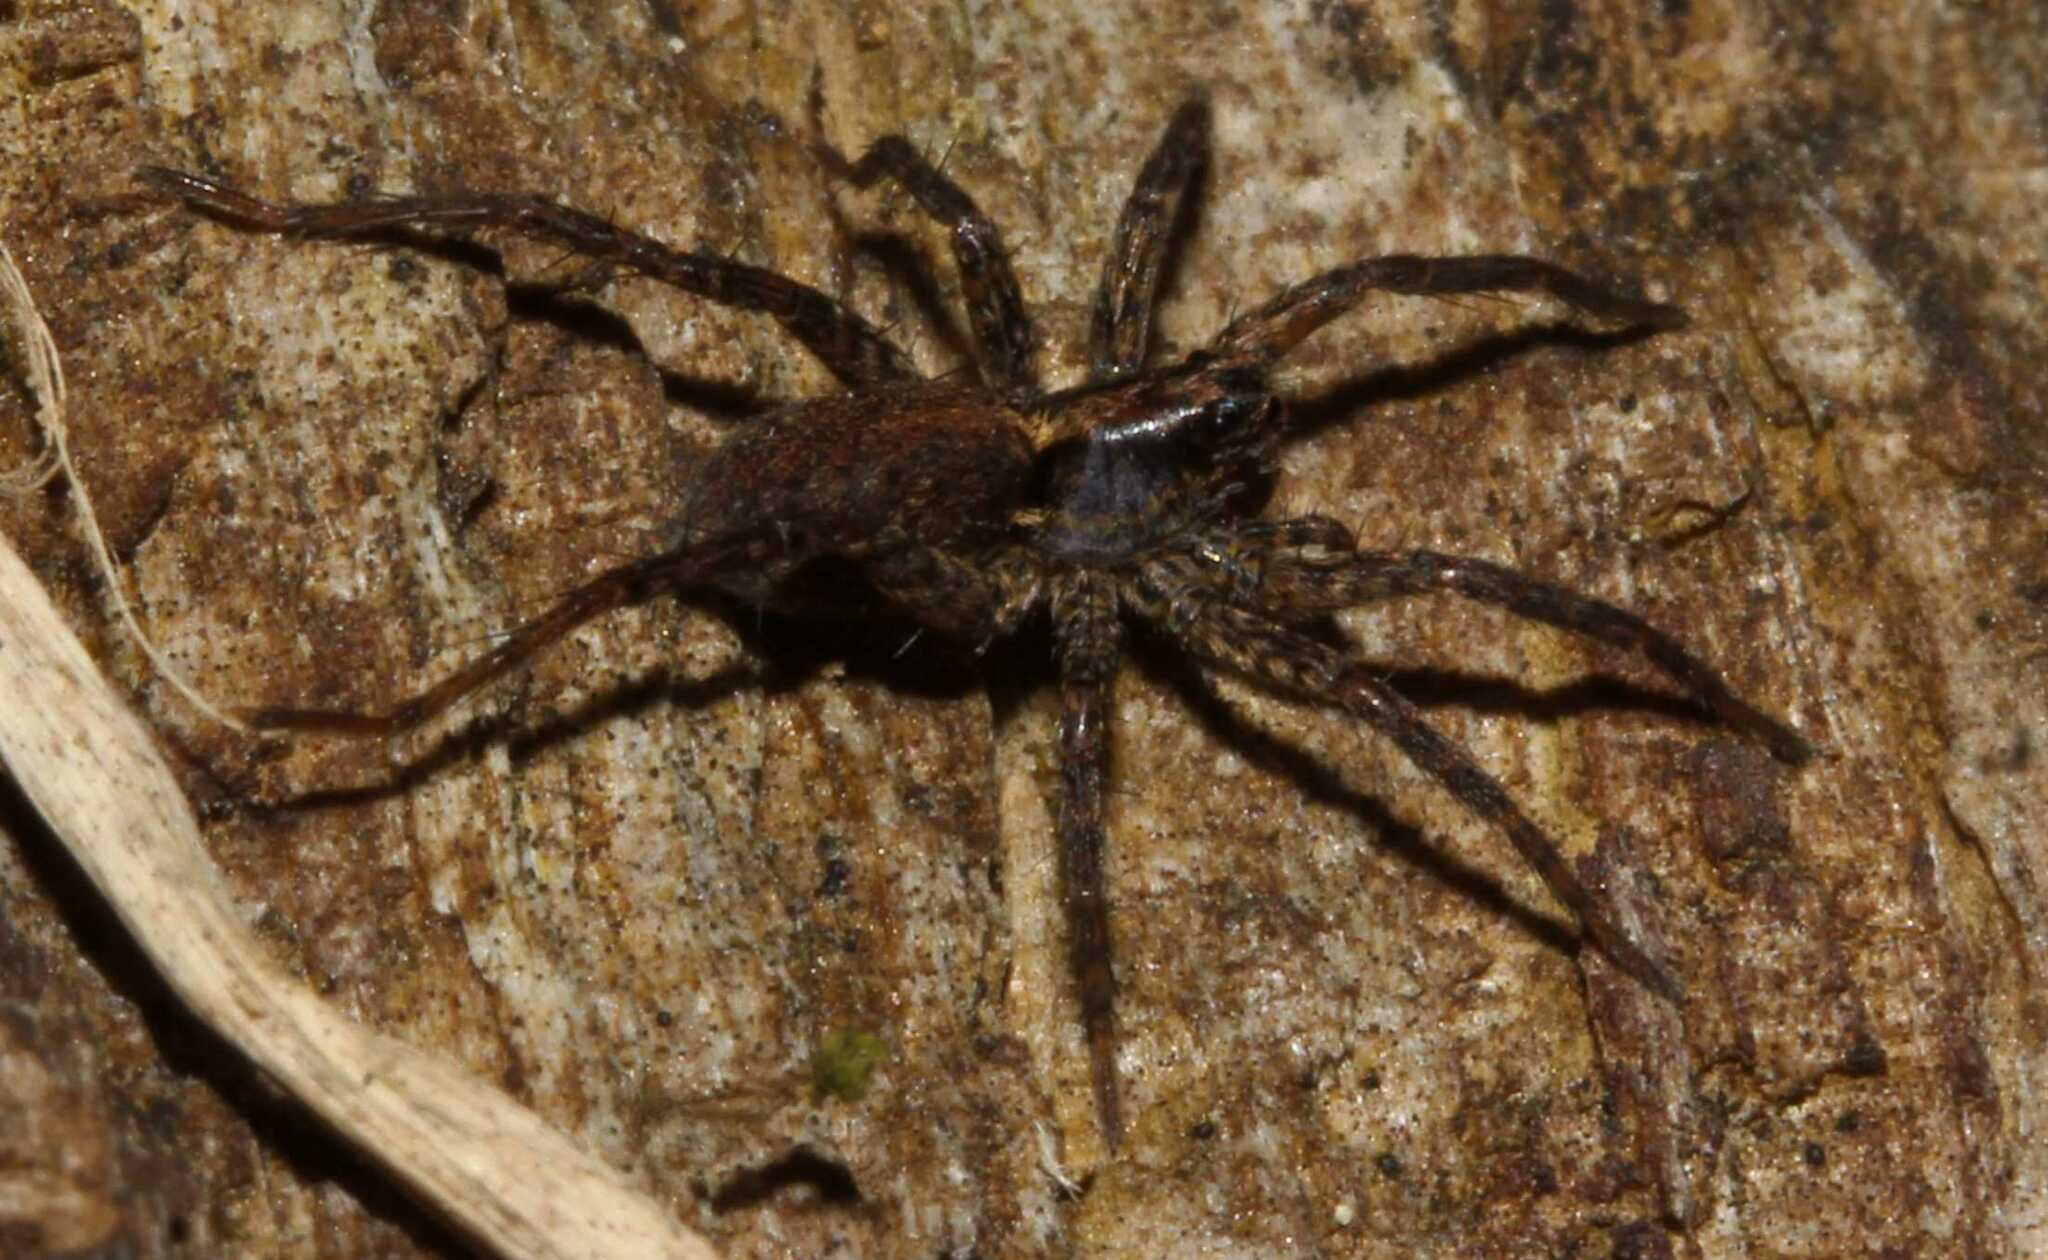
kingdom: Animalia
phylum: Arthropoda
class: Arachnida
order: Araneae
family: Lycosidae
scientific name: Lycosidae
